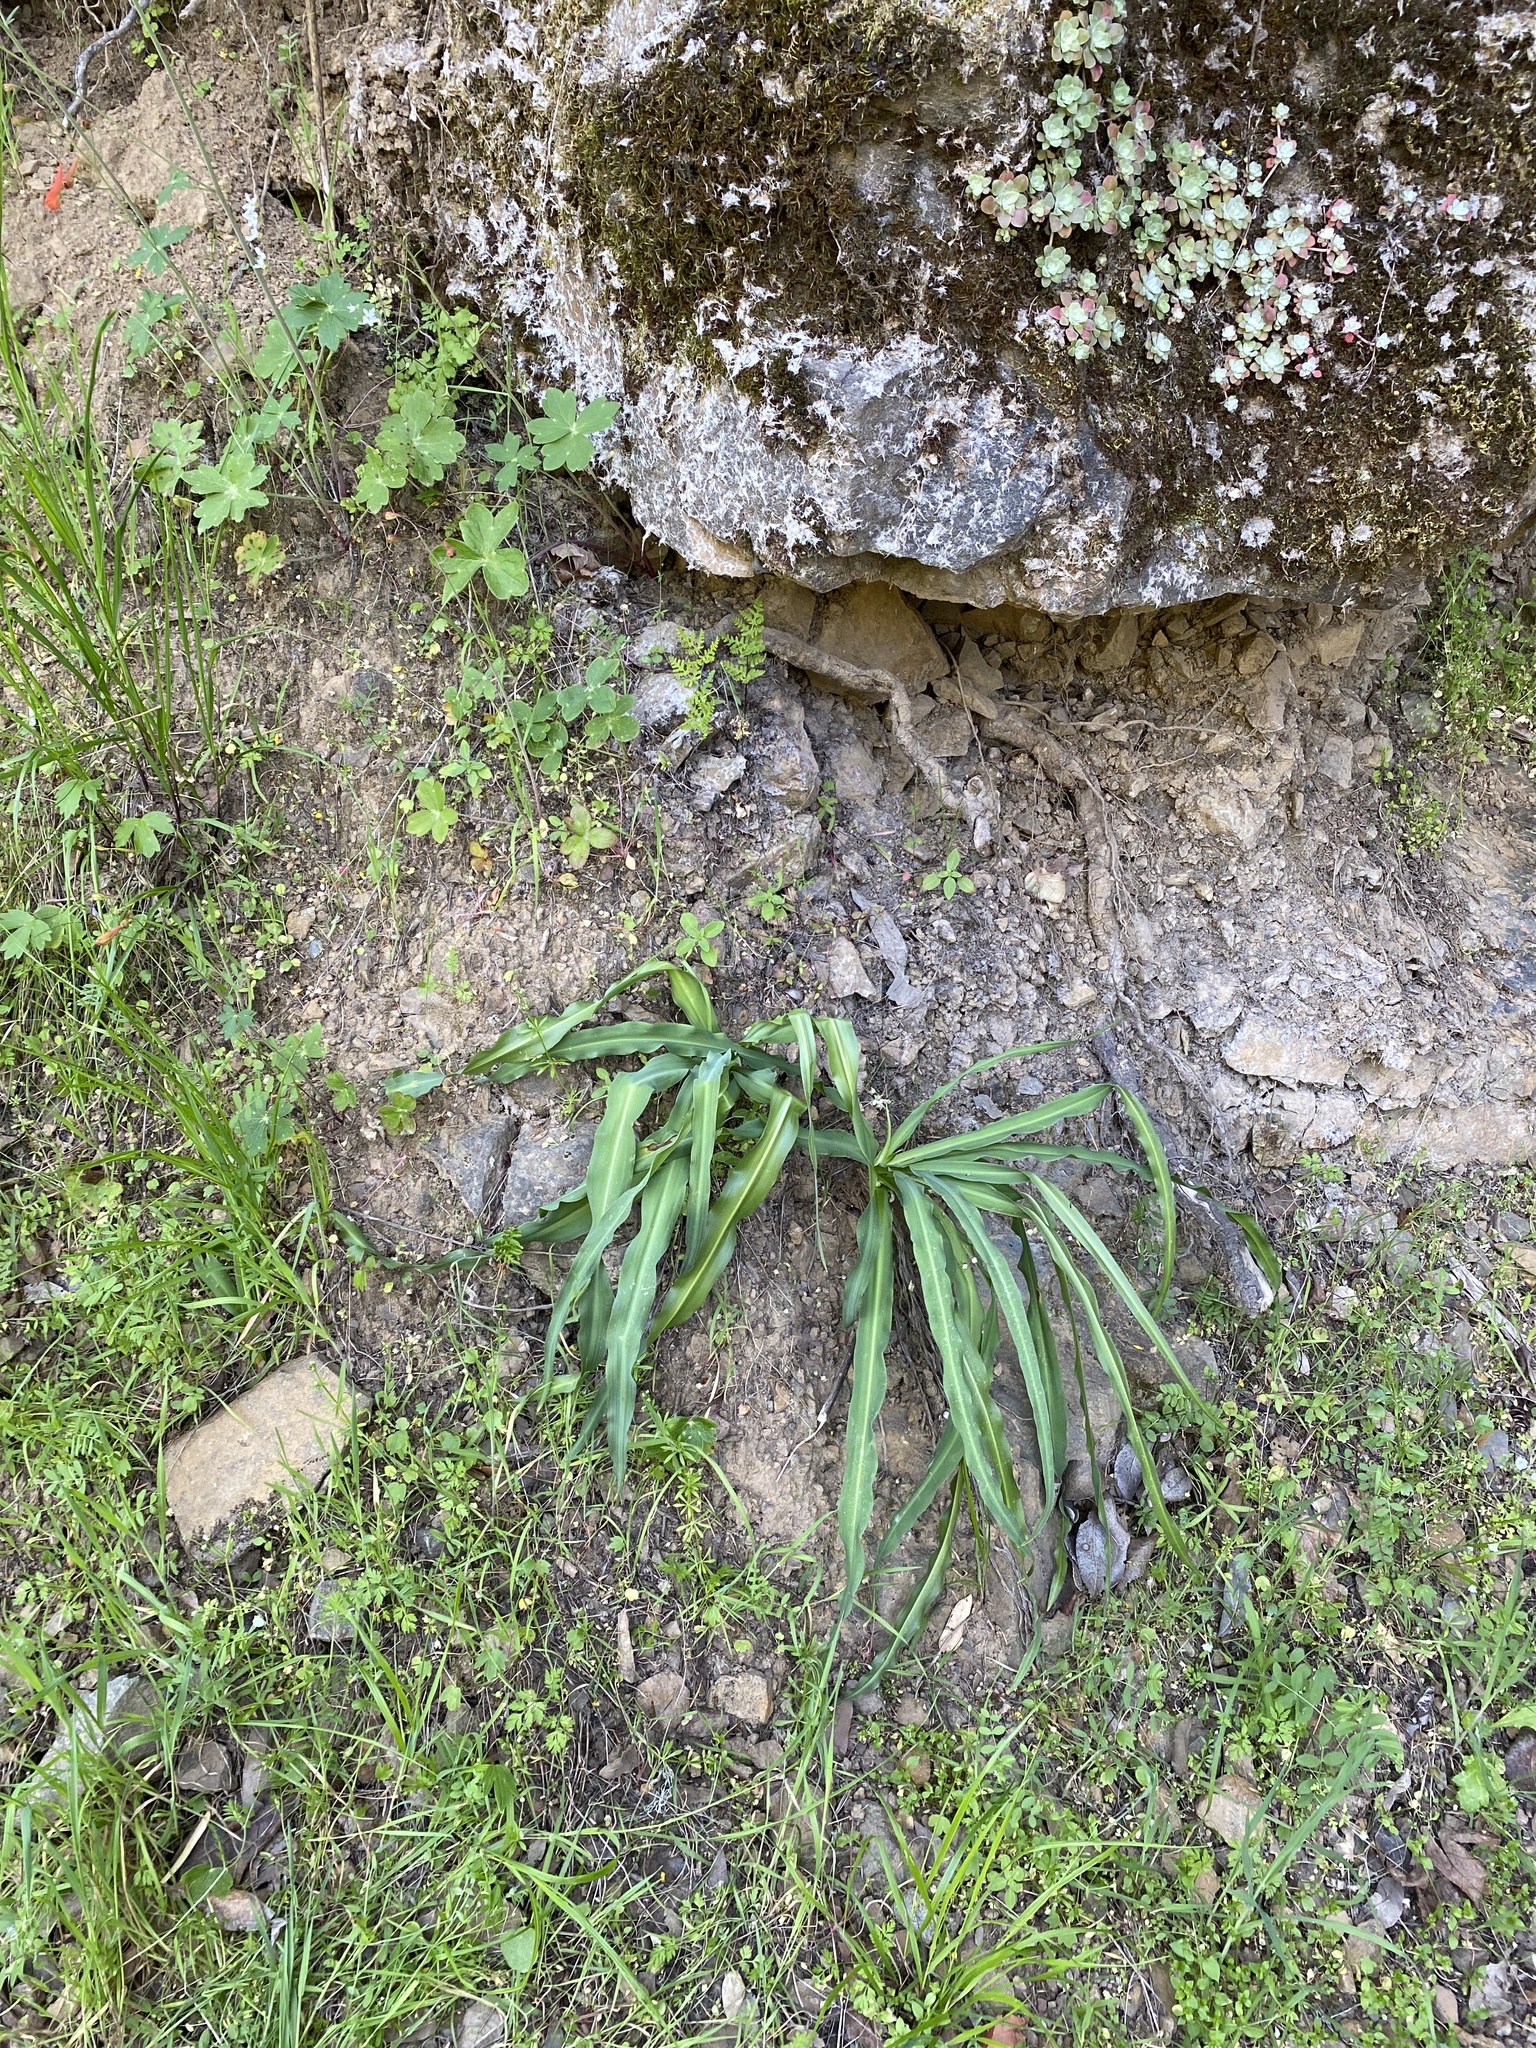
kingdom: Plantae
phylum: Tracheophyta
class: Liliopsida
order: Asparagales
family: Asparagaceae
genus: Chlorogalum
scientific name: Chlorogalum pomeridianum
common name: Amole
